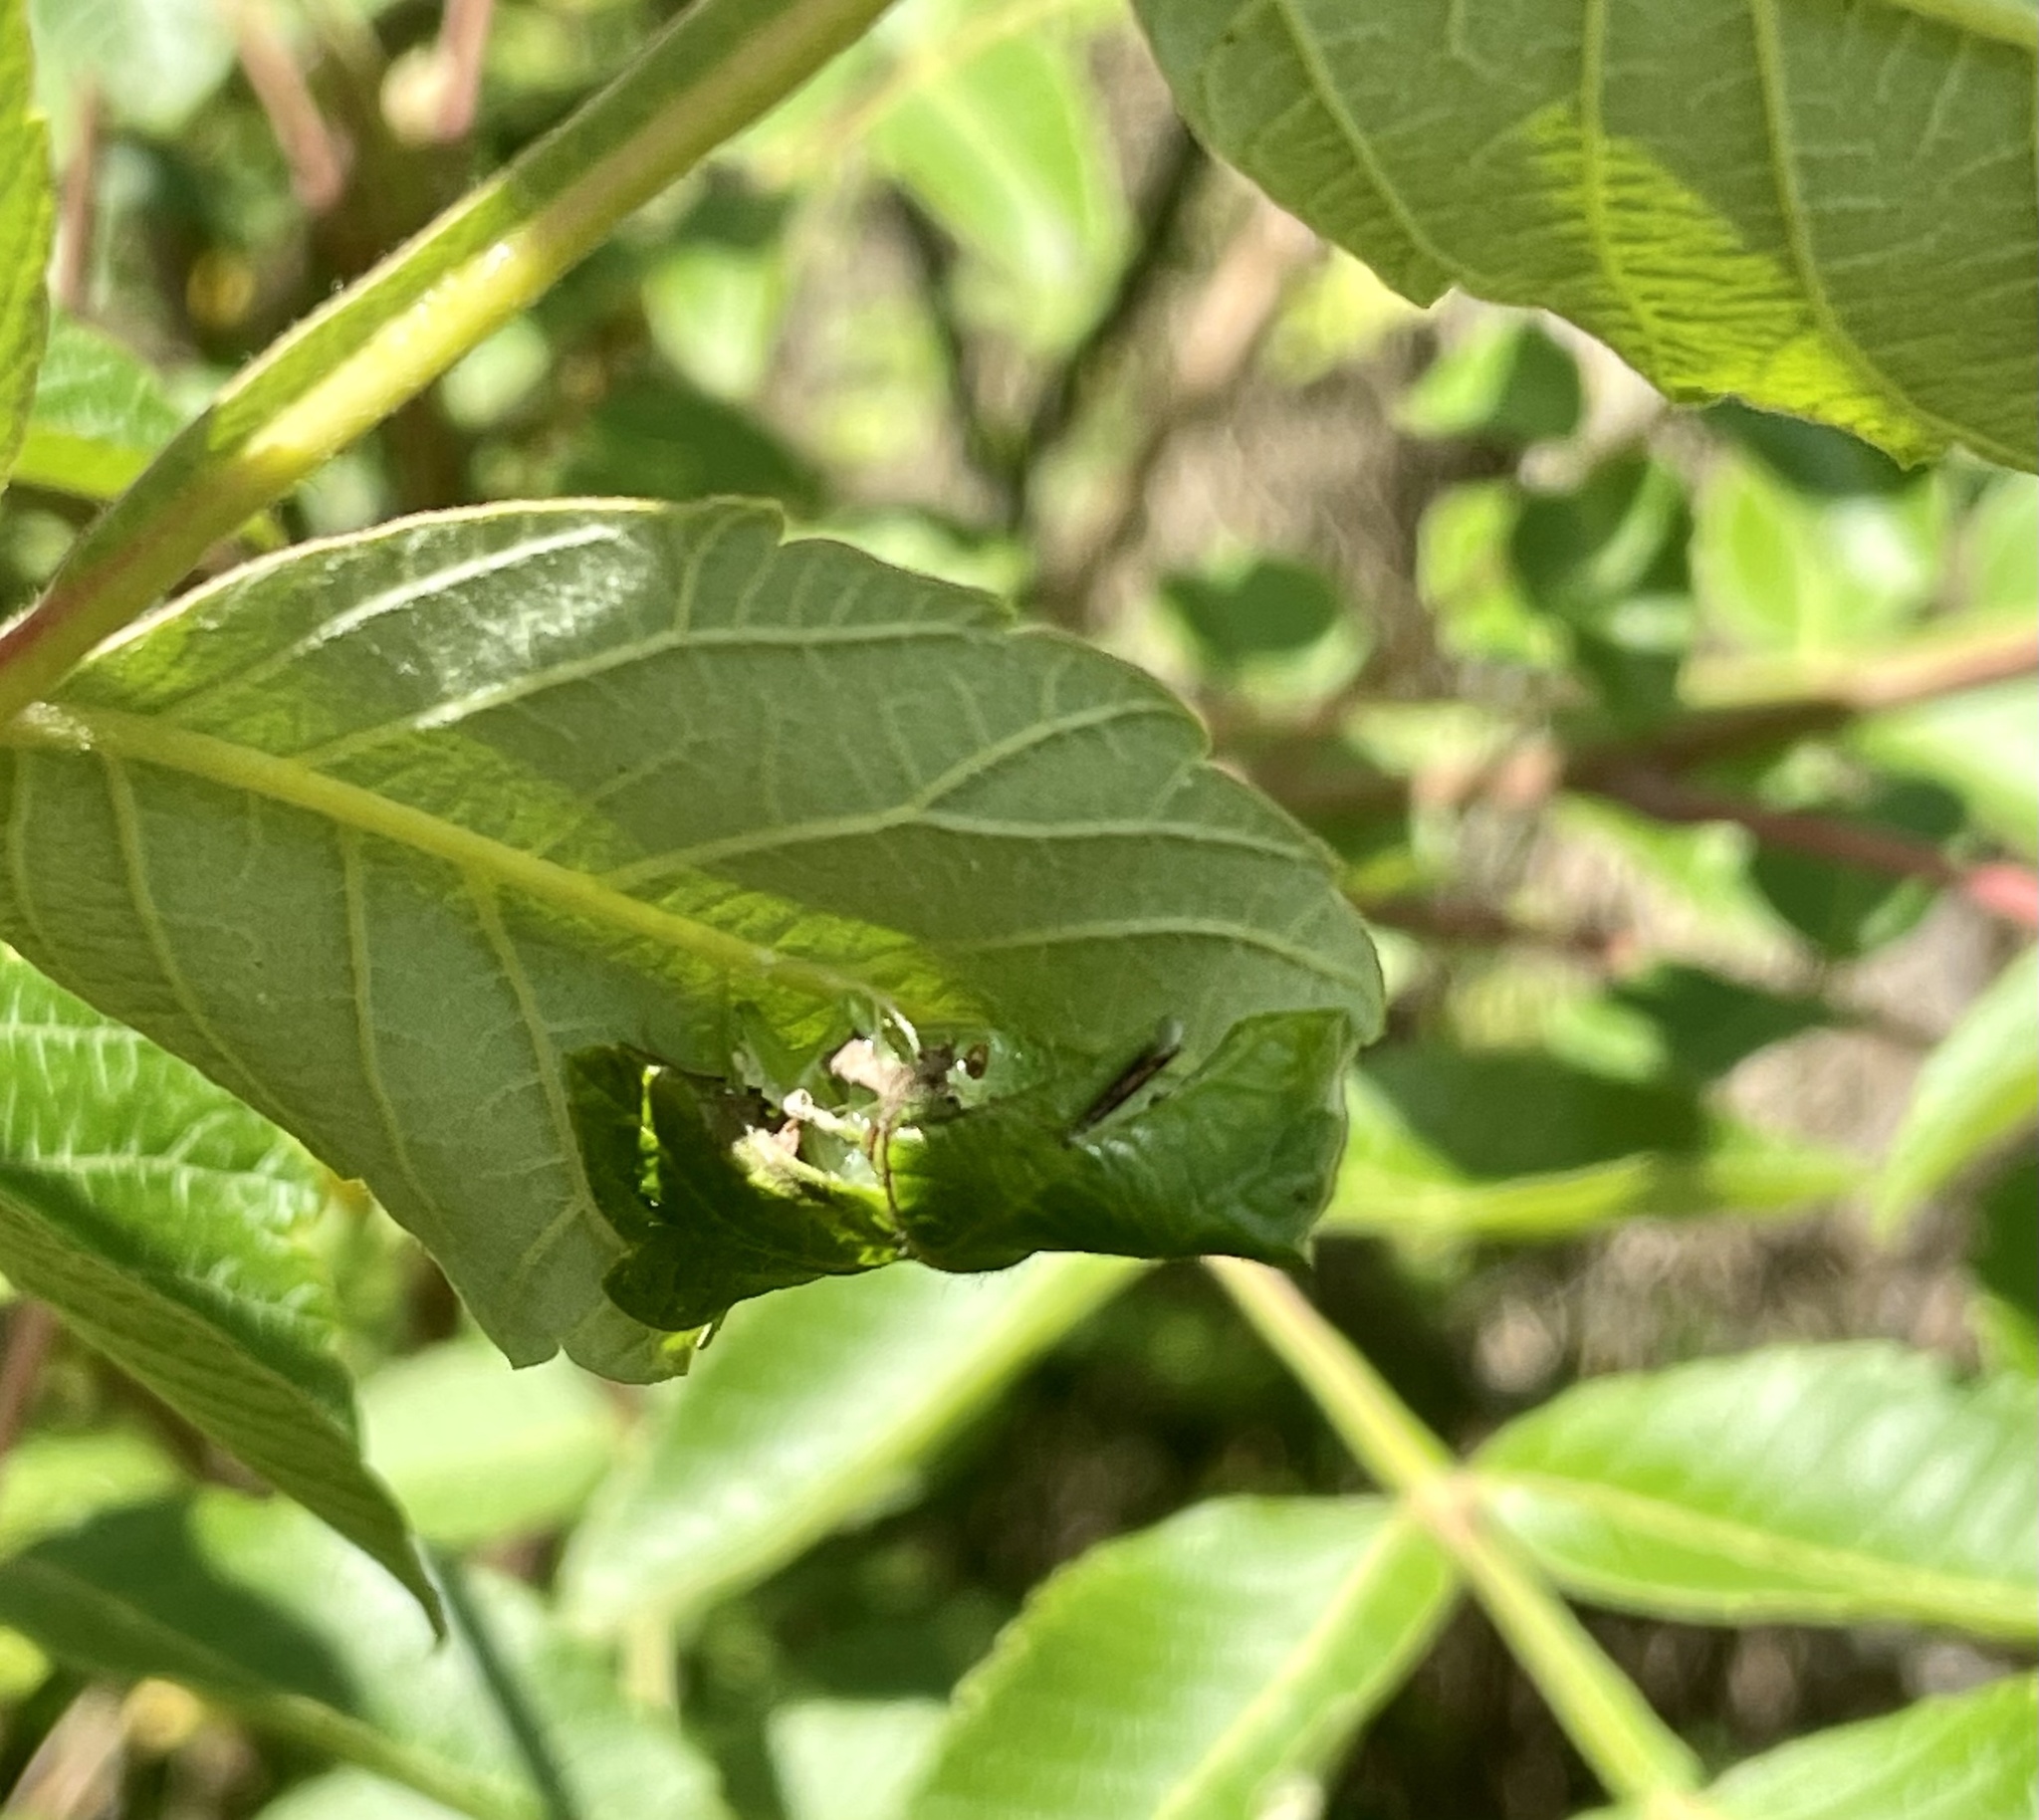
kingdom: Animalia
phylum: Arthropoda
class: Insecta
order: Orthoptera
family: Gryllacrididae
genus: Eugryllacris
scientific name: Eugryllacris japonica
